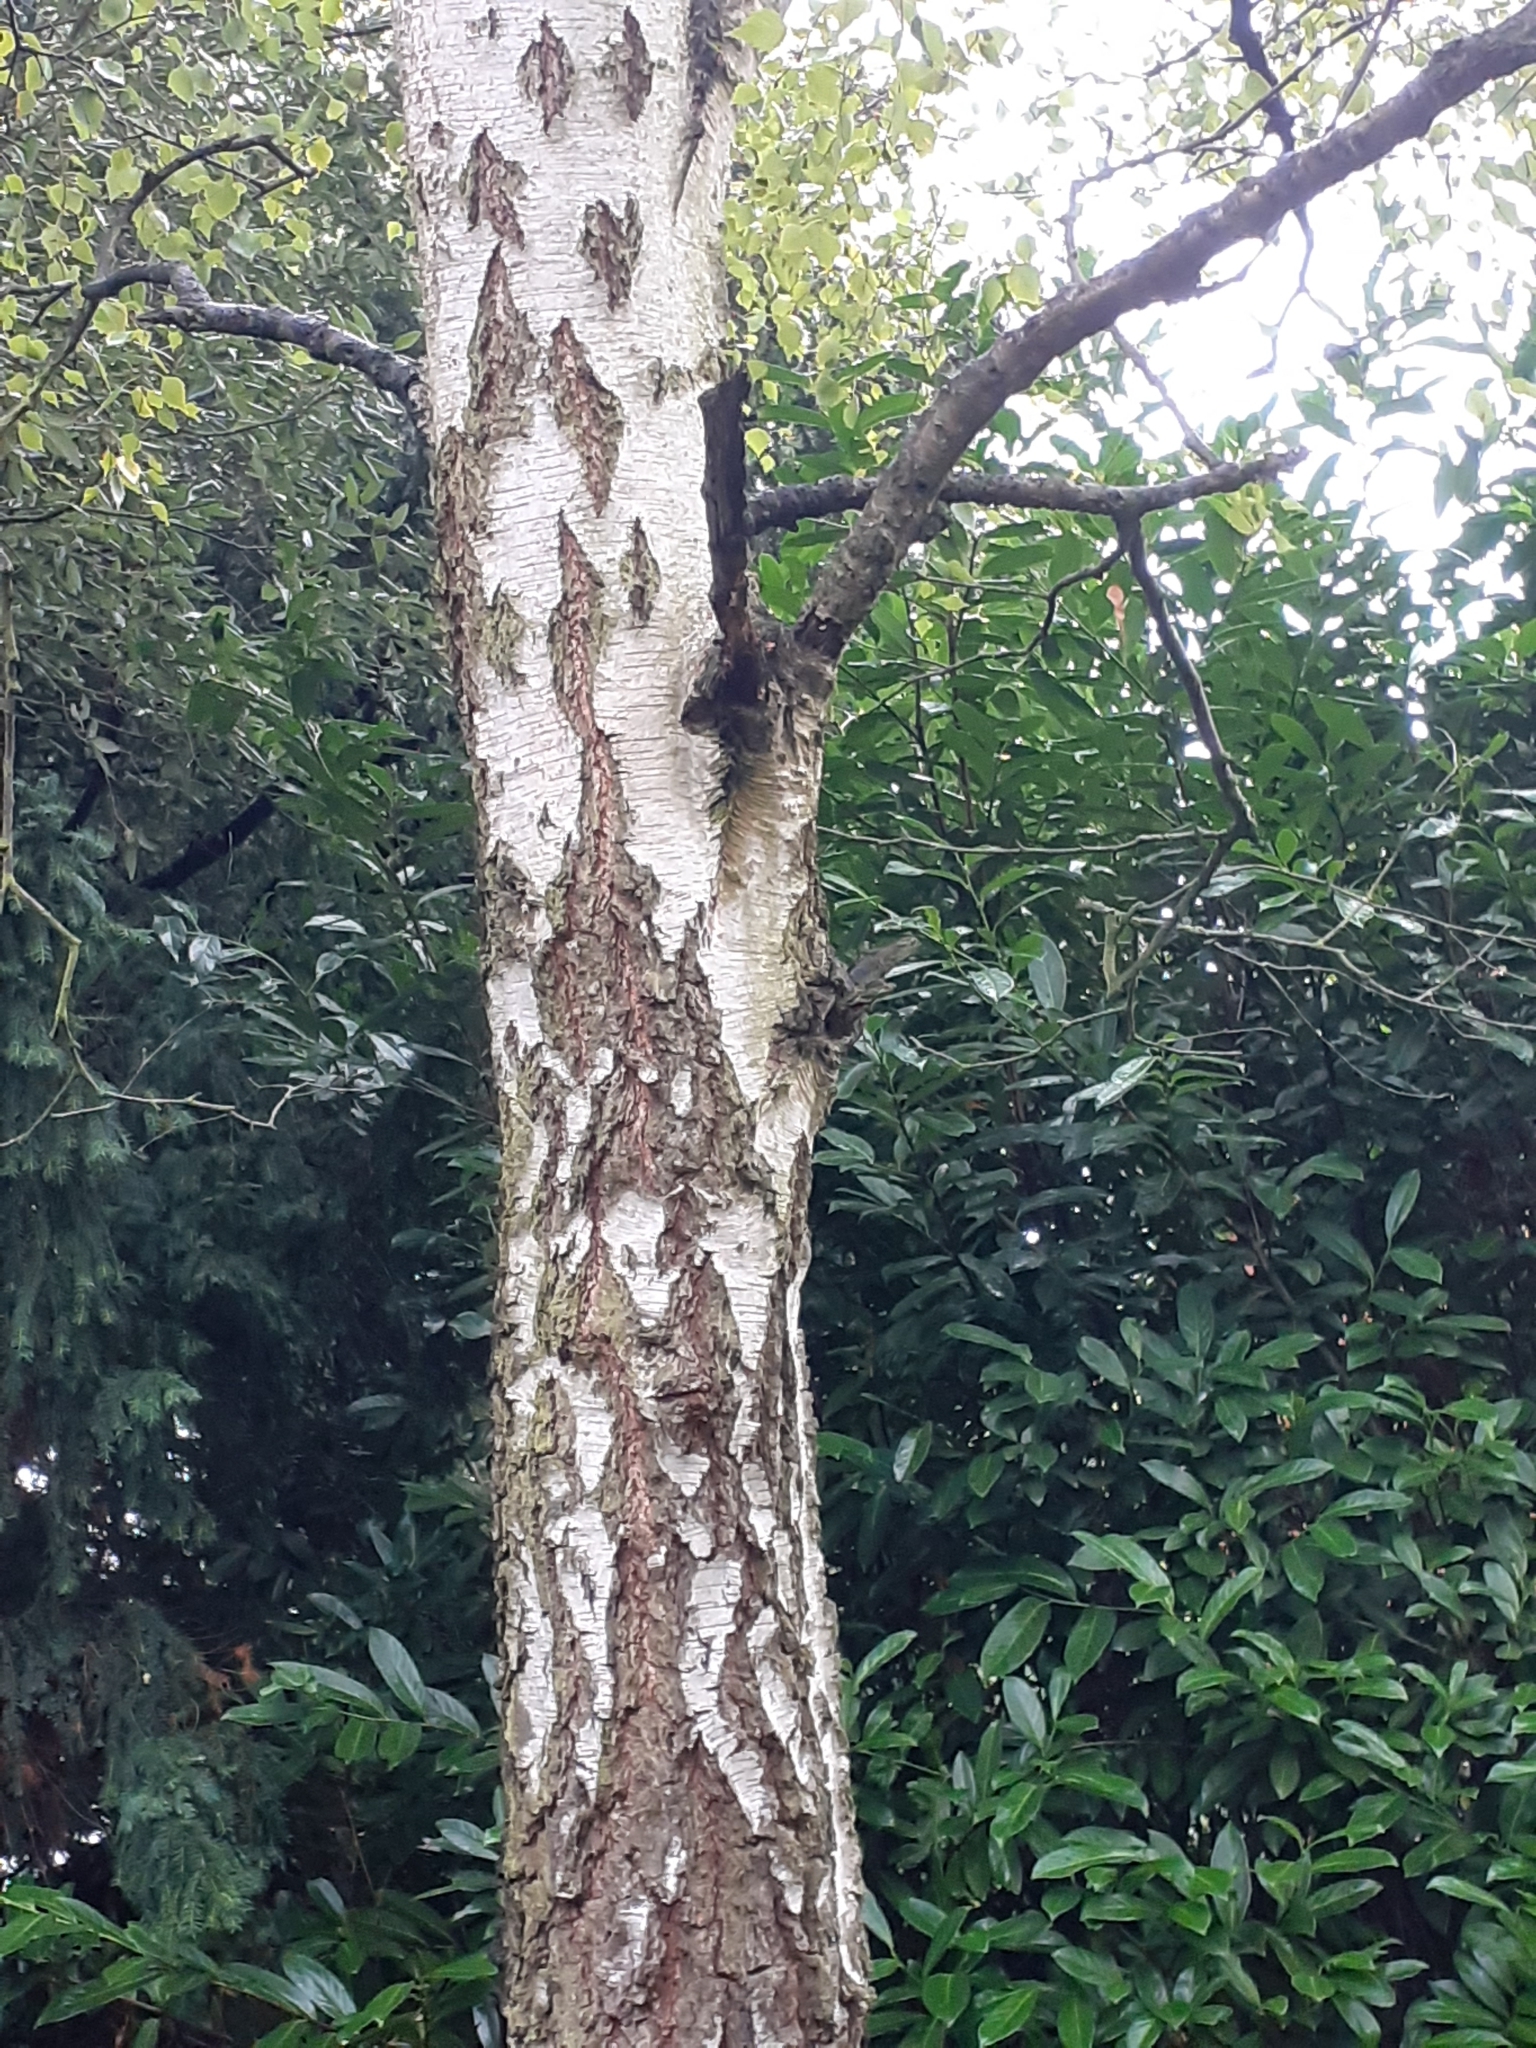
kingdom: Plantae
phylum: Tracheophyta
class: Magnoliopsida
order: Fagales
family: Betulaceae
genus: Betula
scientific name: Betula pendula
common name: Silver birch
